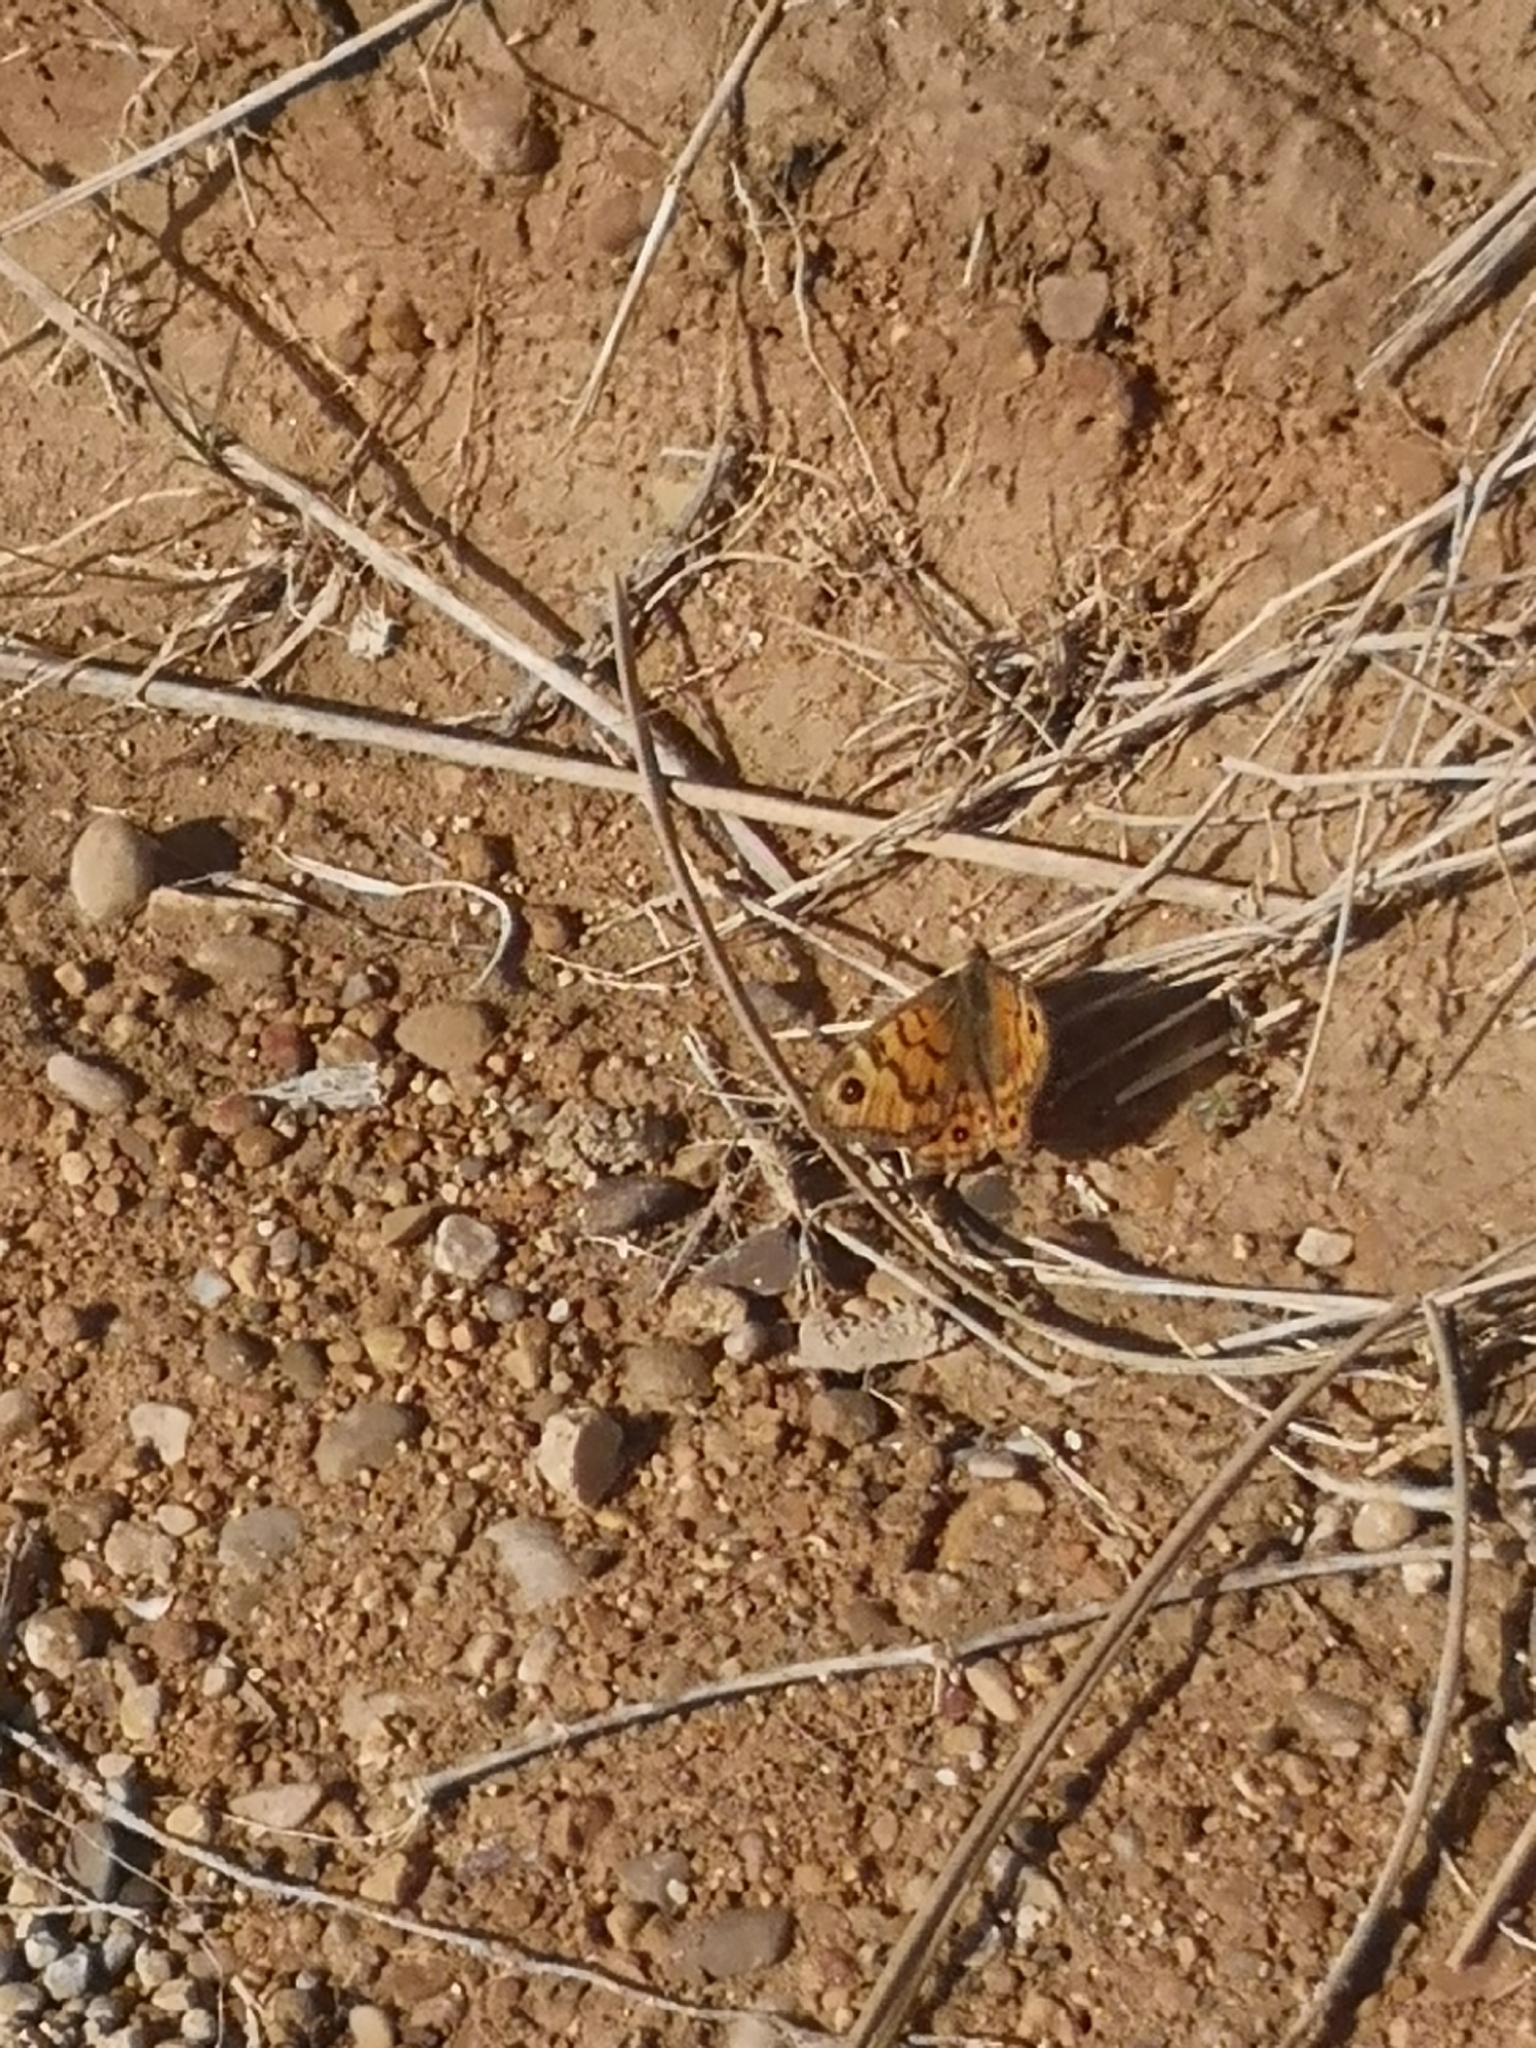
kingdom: Animalia
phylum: Arthropoda
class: Insecta
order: Lepidoptera
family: Nymphalidae
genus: Pararge
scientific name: Pararge Lasiommata megera
